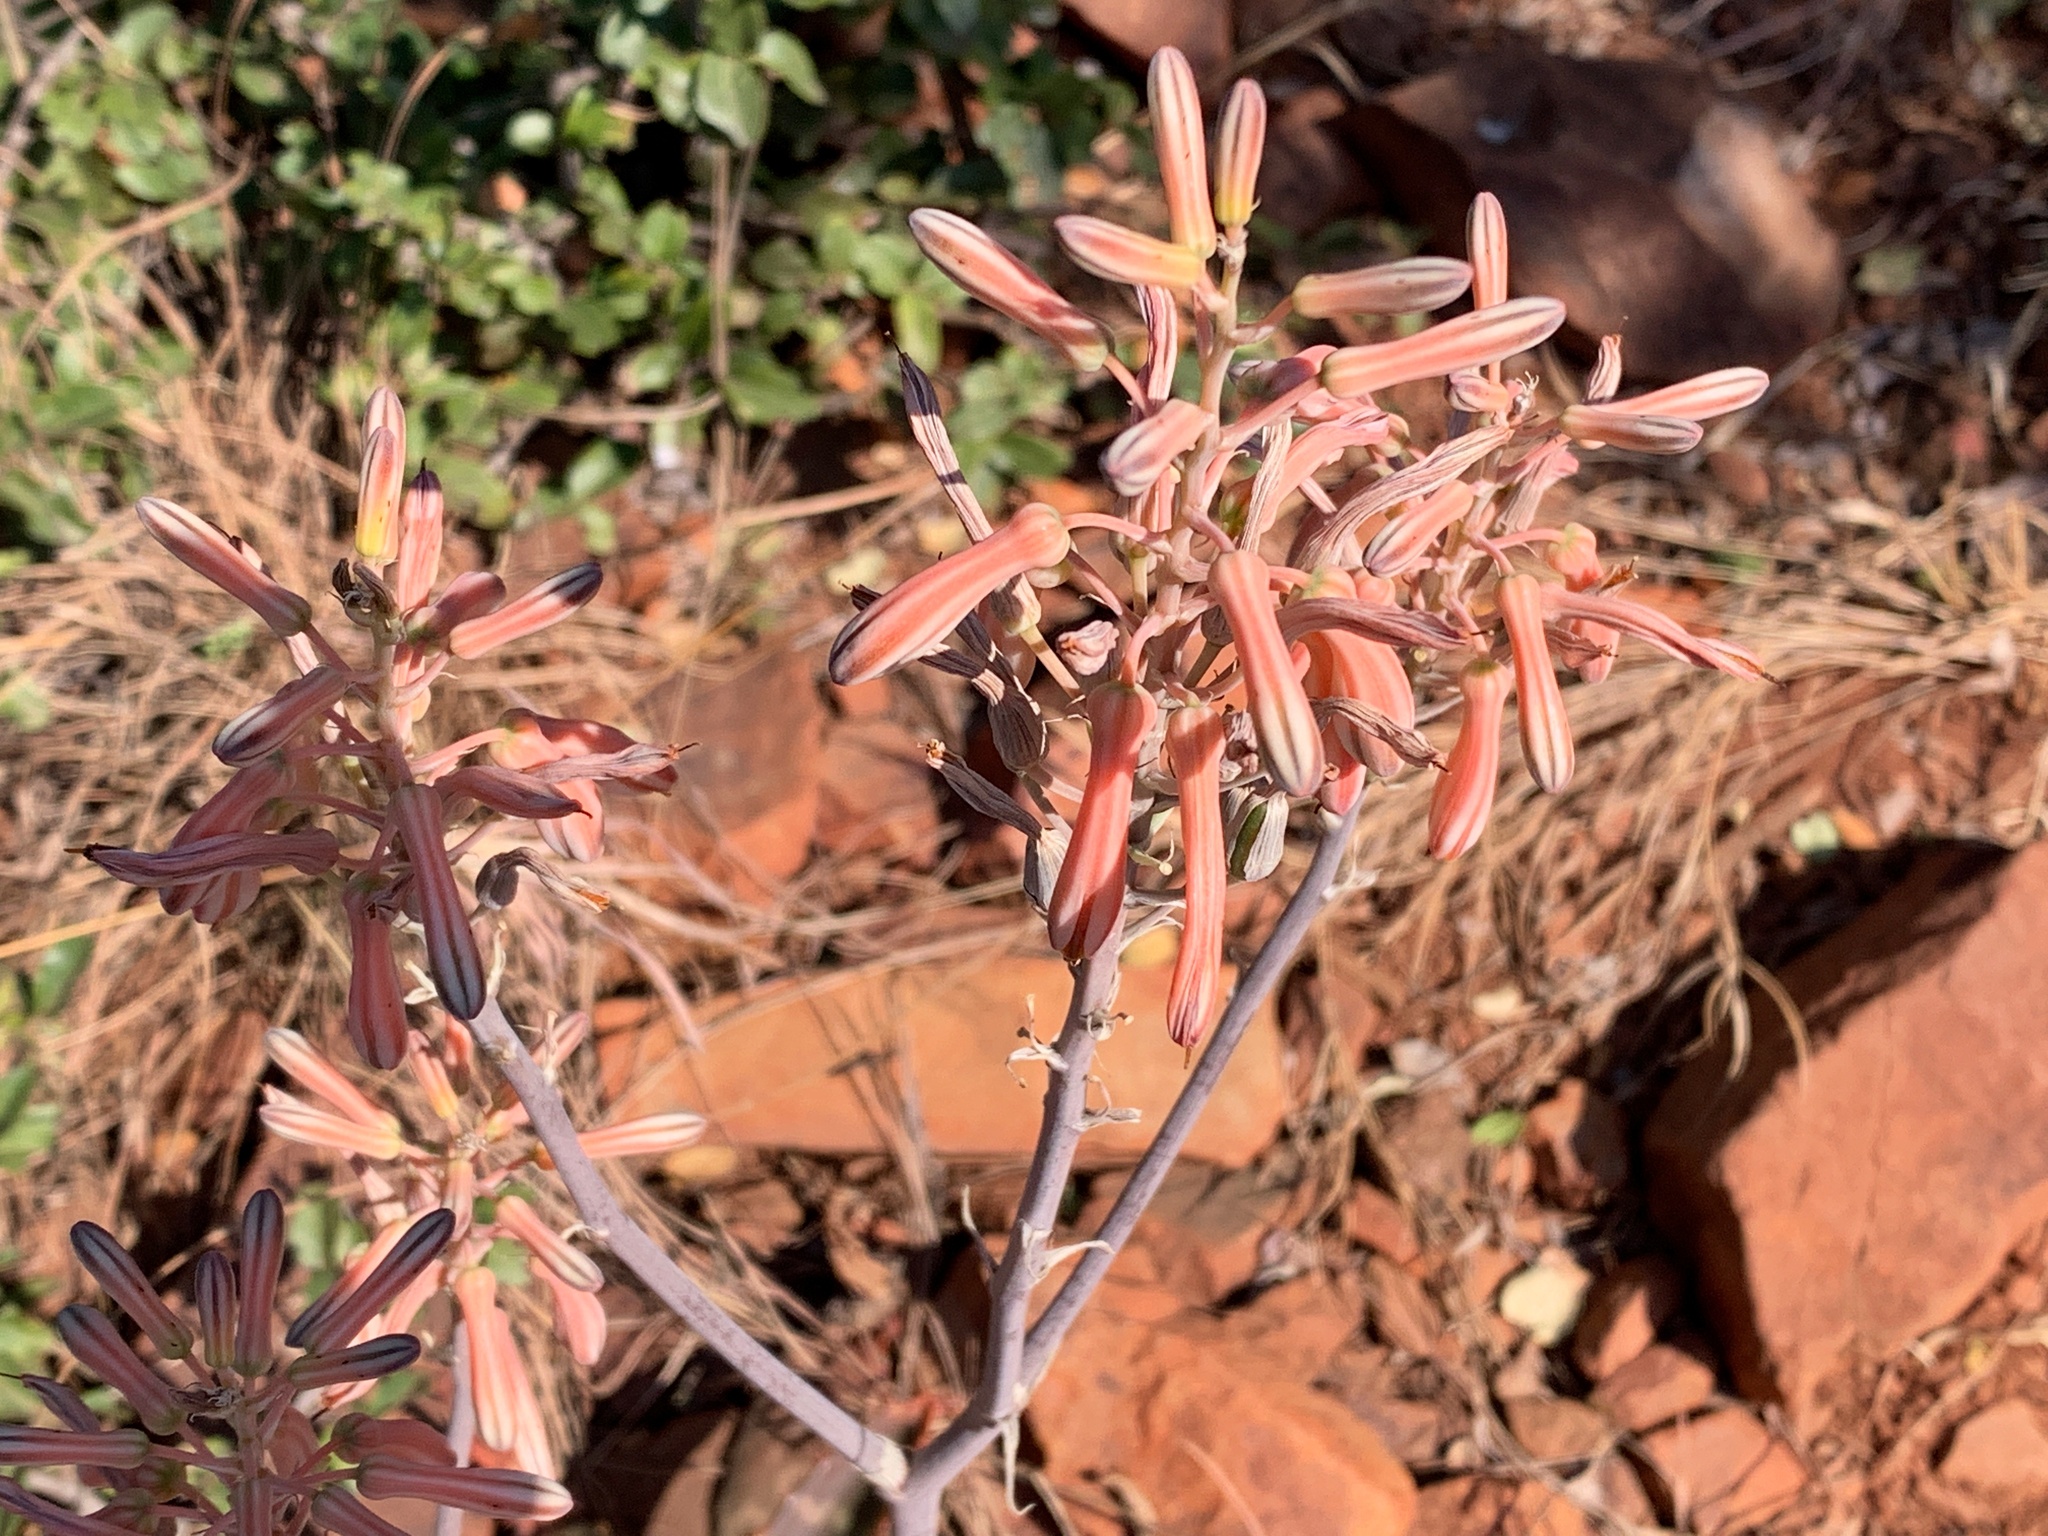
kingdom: Plantae
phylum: Tracheophyta
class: Liliopsida
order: Asparagales
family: Asphodelaceae
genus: Aloe
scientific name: Aloe greatheadii
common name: Greathead's aloe
